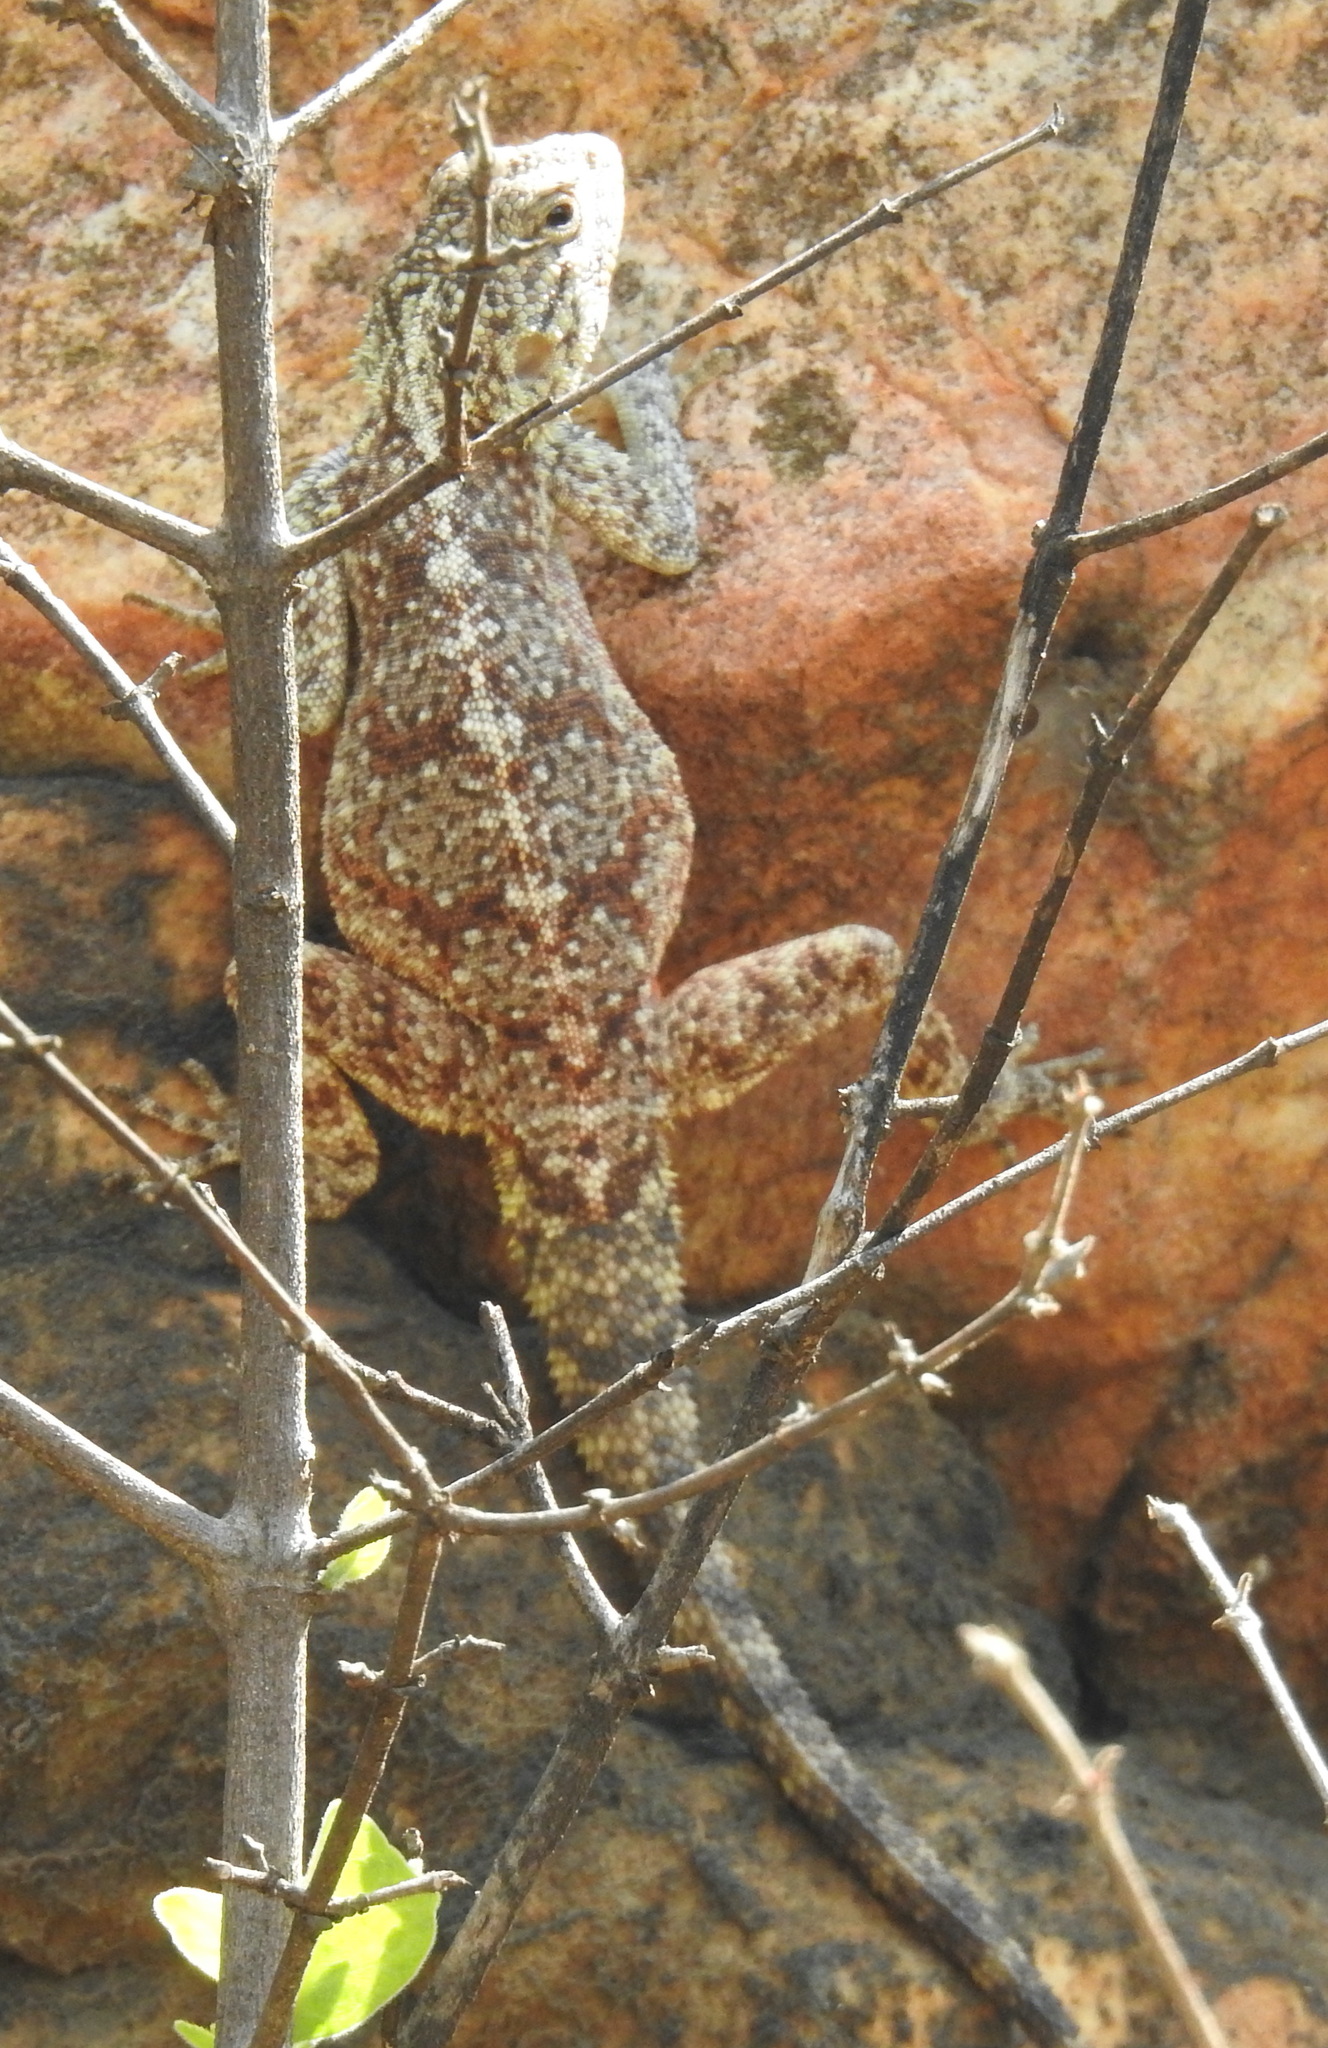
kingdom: Animalia
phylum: Chordata
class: Squamata
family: Agamidae
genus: Agama
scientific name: Agama atra
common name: Southern african rock agama
